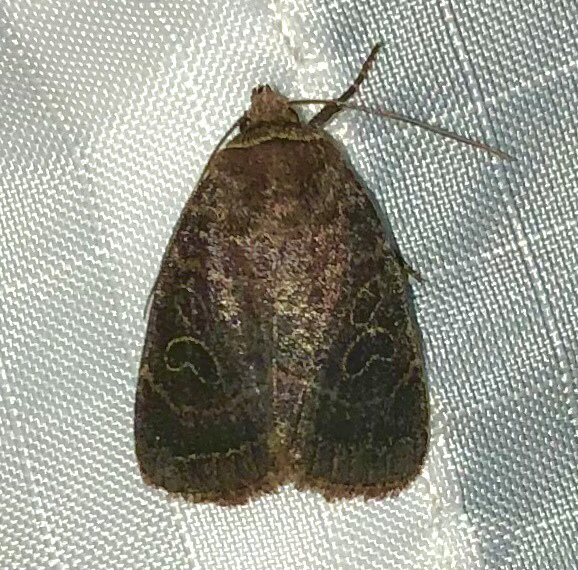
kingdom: Animalia
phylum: Arthropoda
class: Insecta
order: Lepidoptera
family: Noctuidae
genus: Orthodes
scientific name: Orthodes cynica
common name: Cynical quaker
